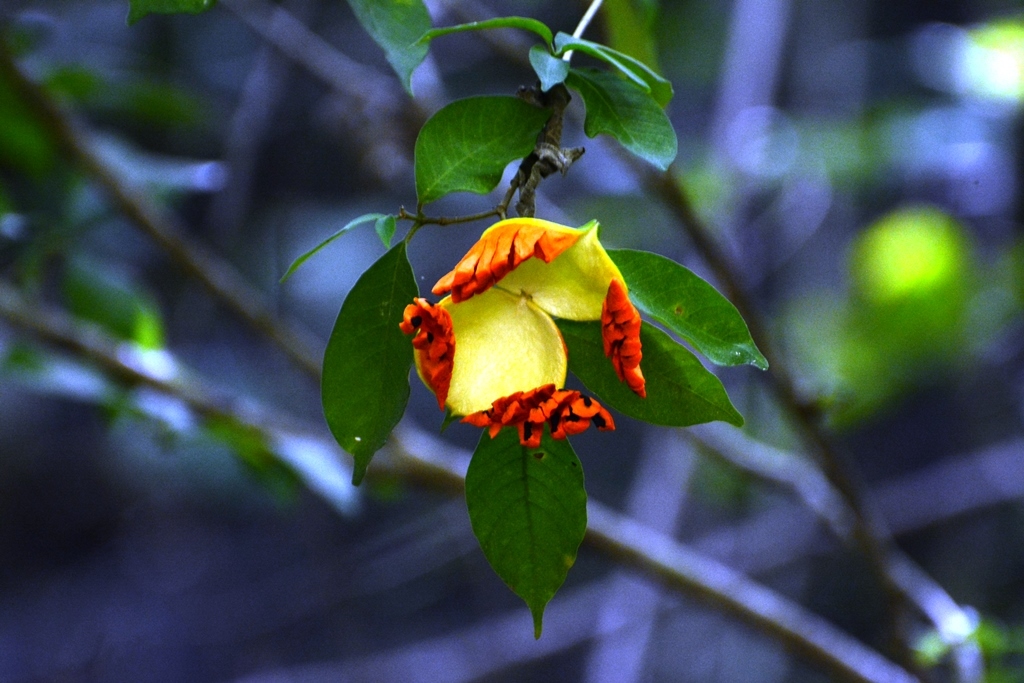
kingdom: Plantae
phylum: Tracheophyta
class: Magnoliopsida
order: Gentianales
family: Apocynaceae
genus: Tabernaemontana
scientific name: Tabernaemontana glabra
